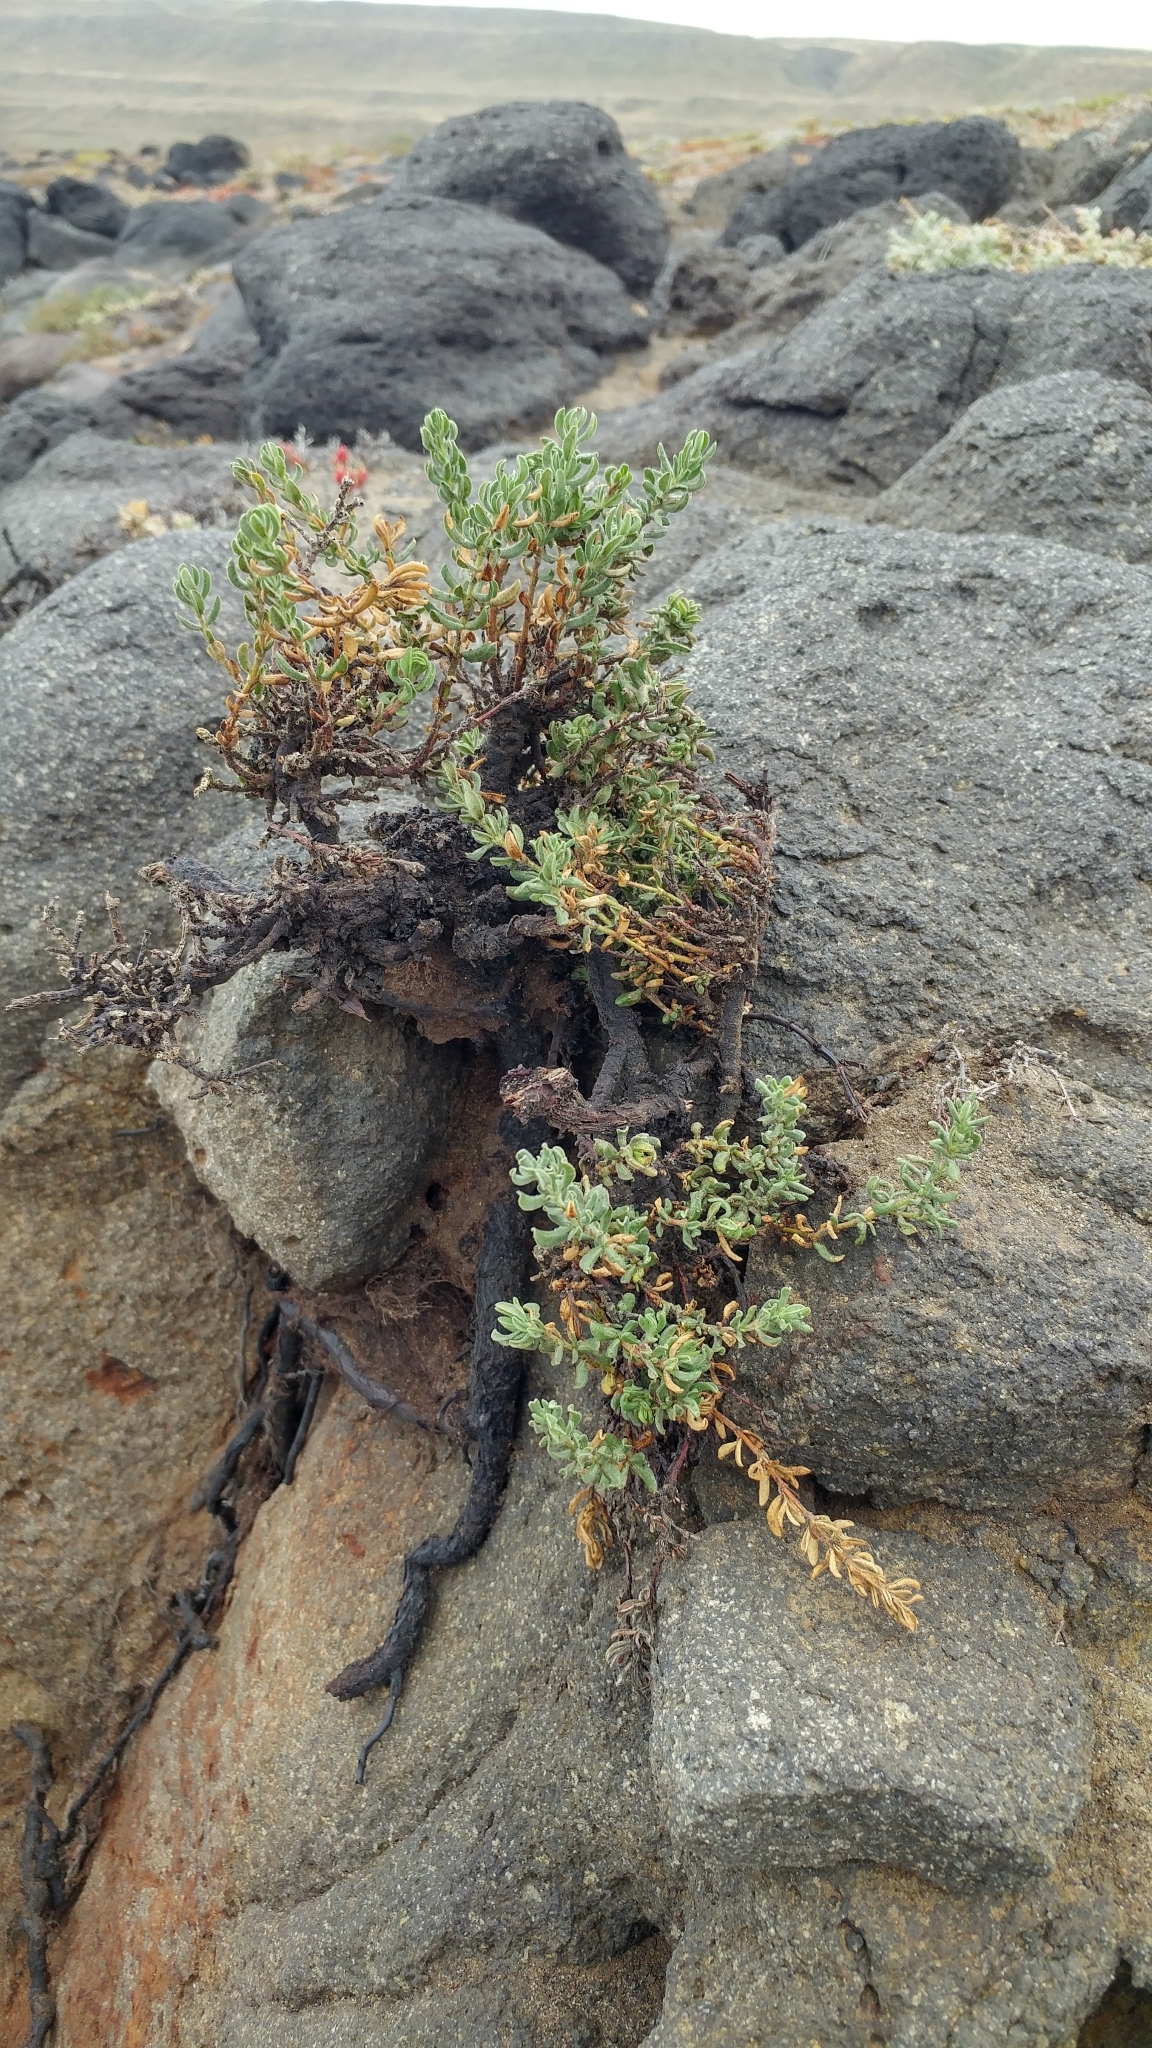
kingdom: Plantae
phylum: Tracheophyta
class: Magnoliopsida
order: Caryophyllales
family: Frankeniaceae
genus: Frankenia
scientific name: Frankenia salina
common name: Alkali seaheath
